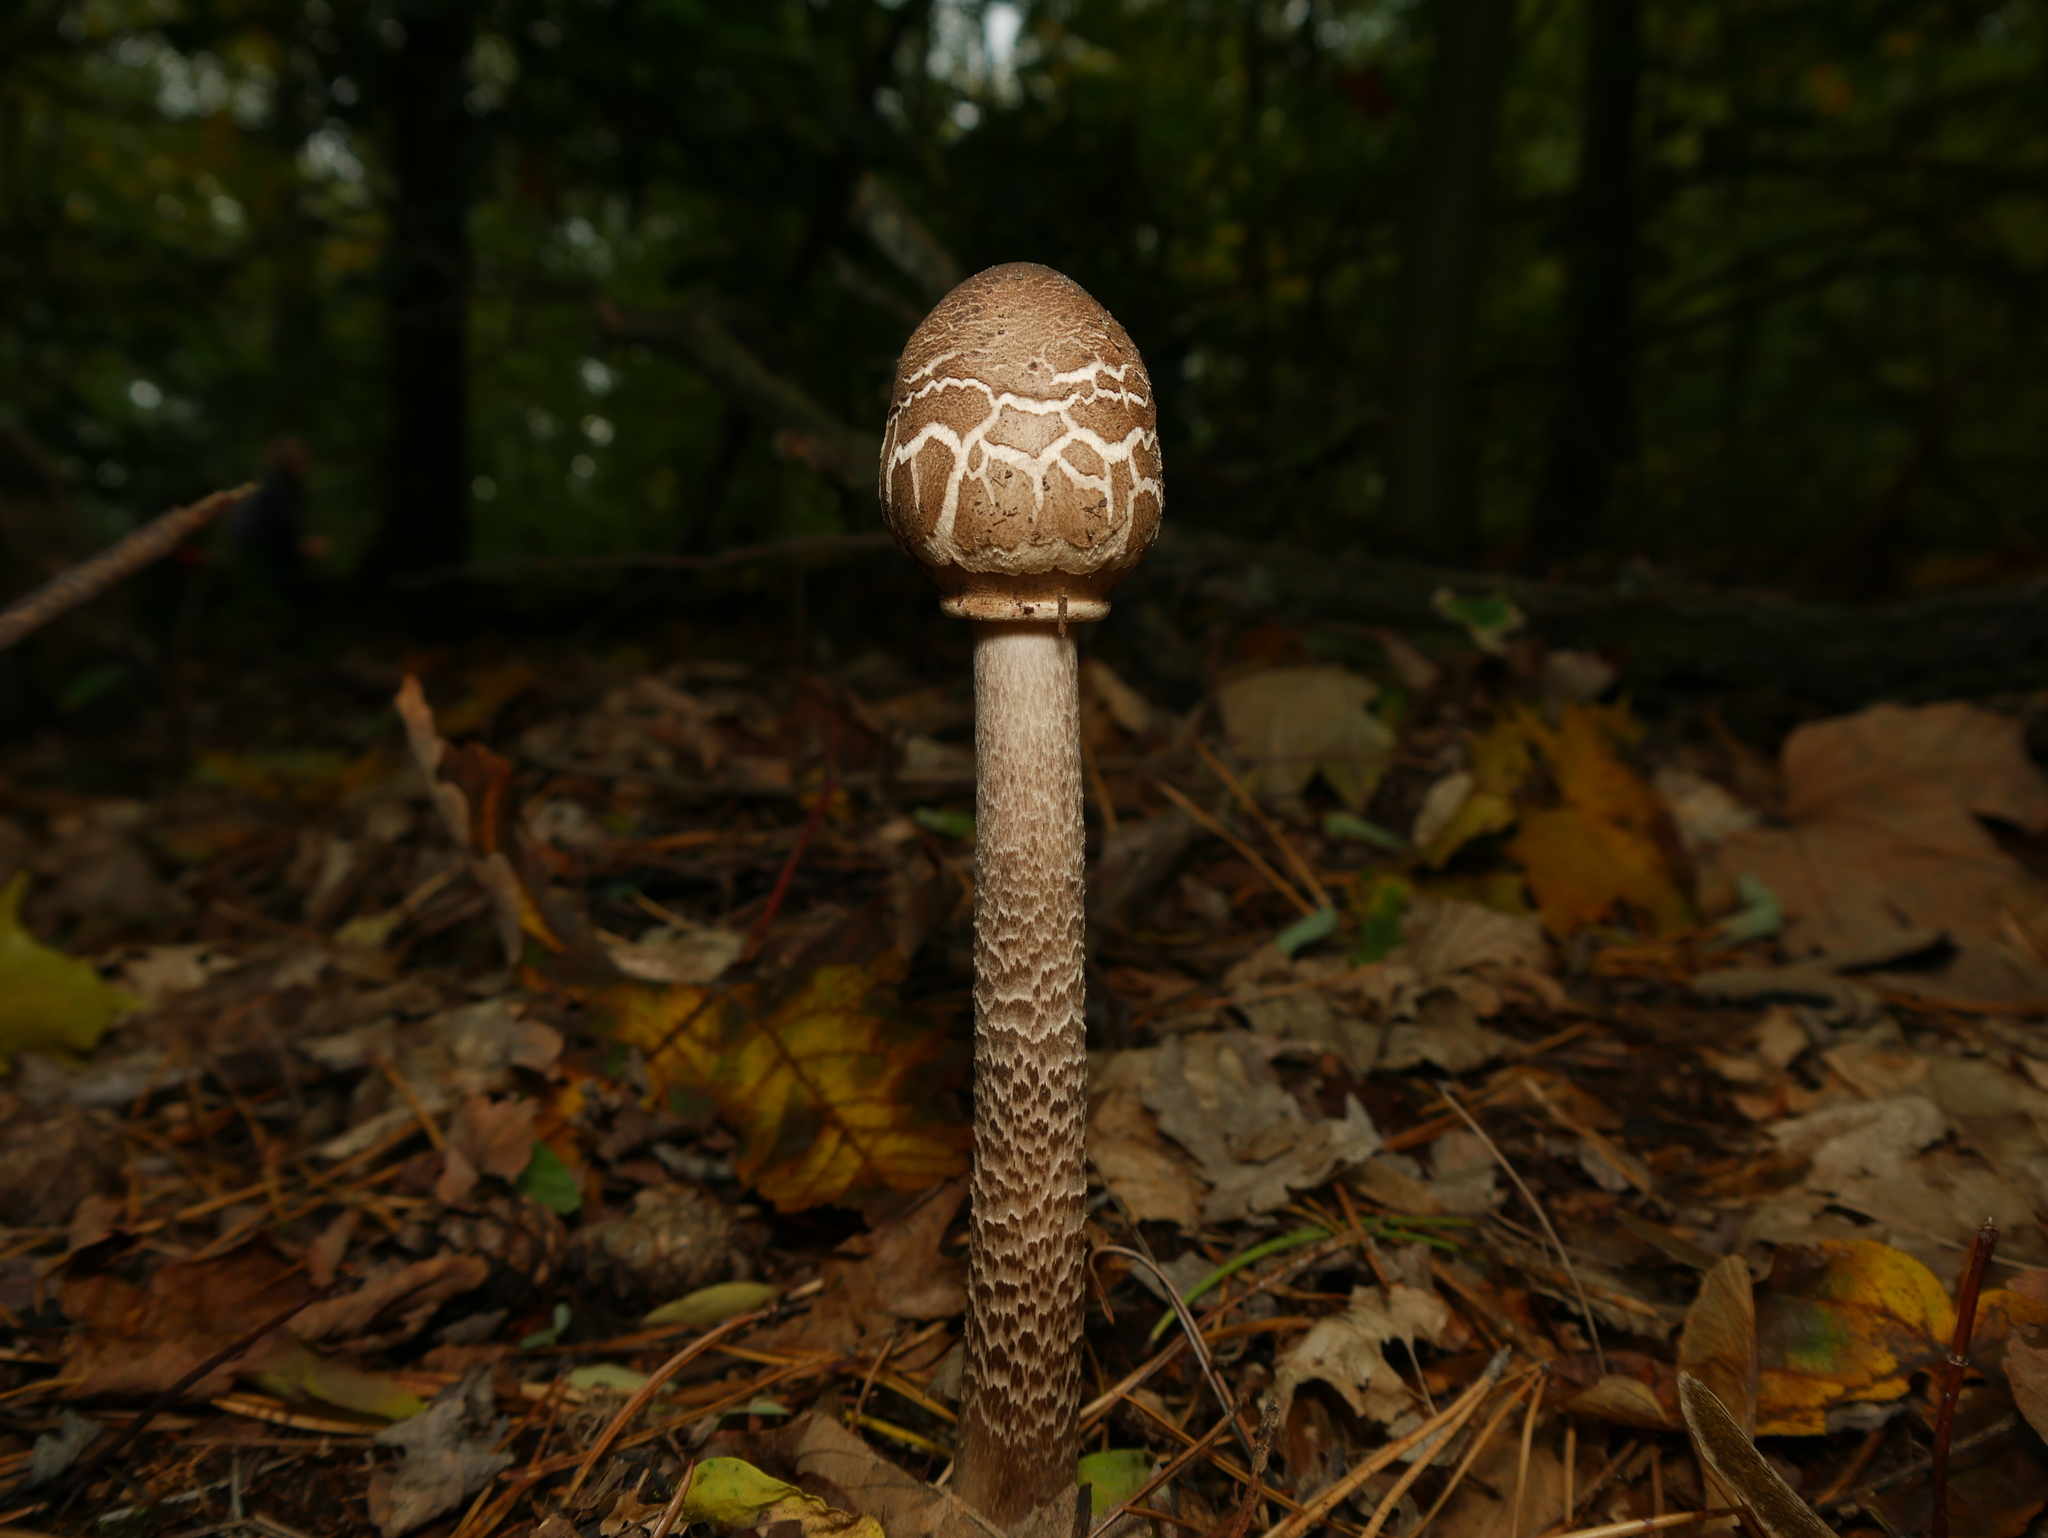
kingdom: Fungi
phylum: Basidiomycota
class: Agaricomycetes
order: Agaricales
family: Agaricaceae
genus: Macrolepiota
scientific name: Macrolepiota procera
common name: Parasol
